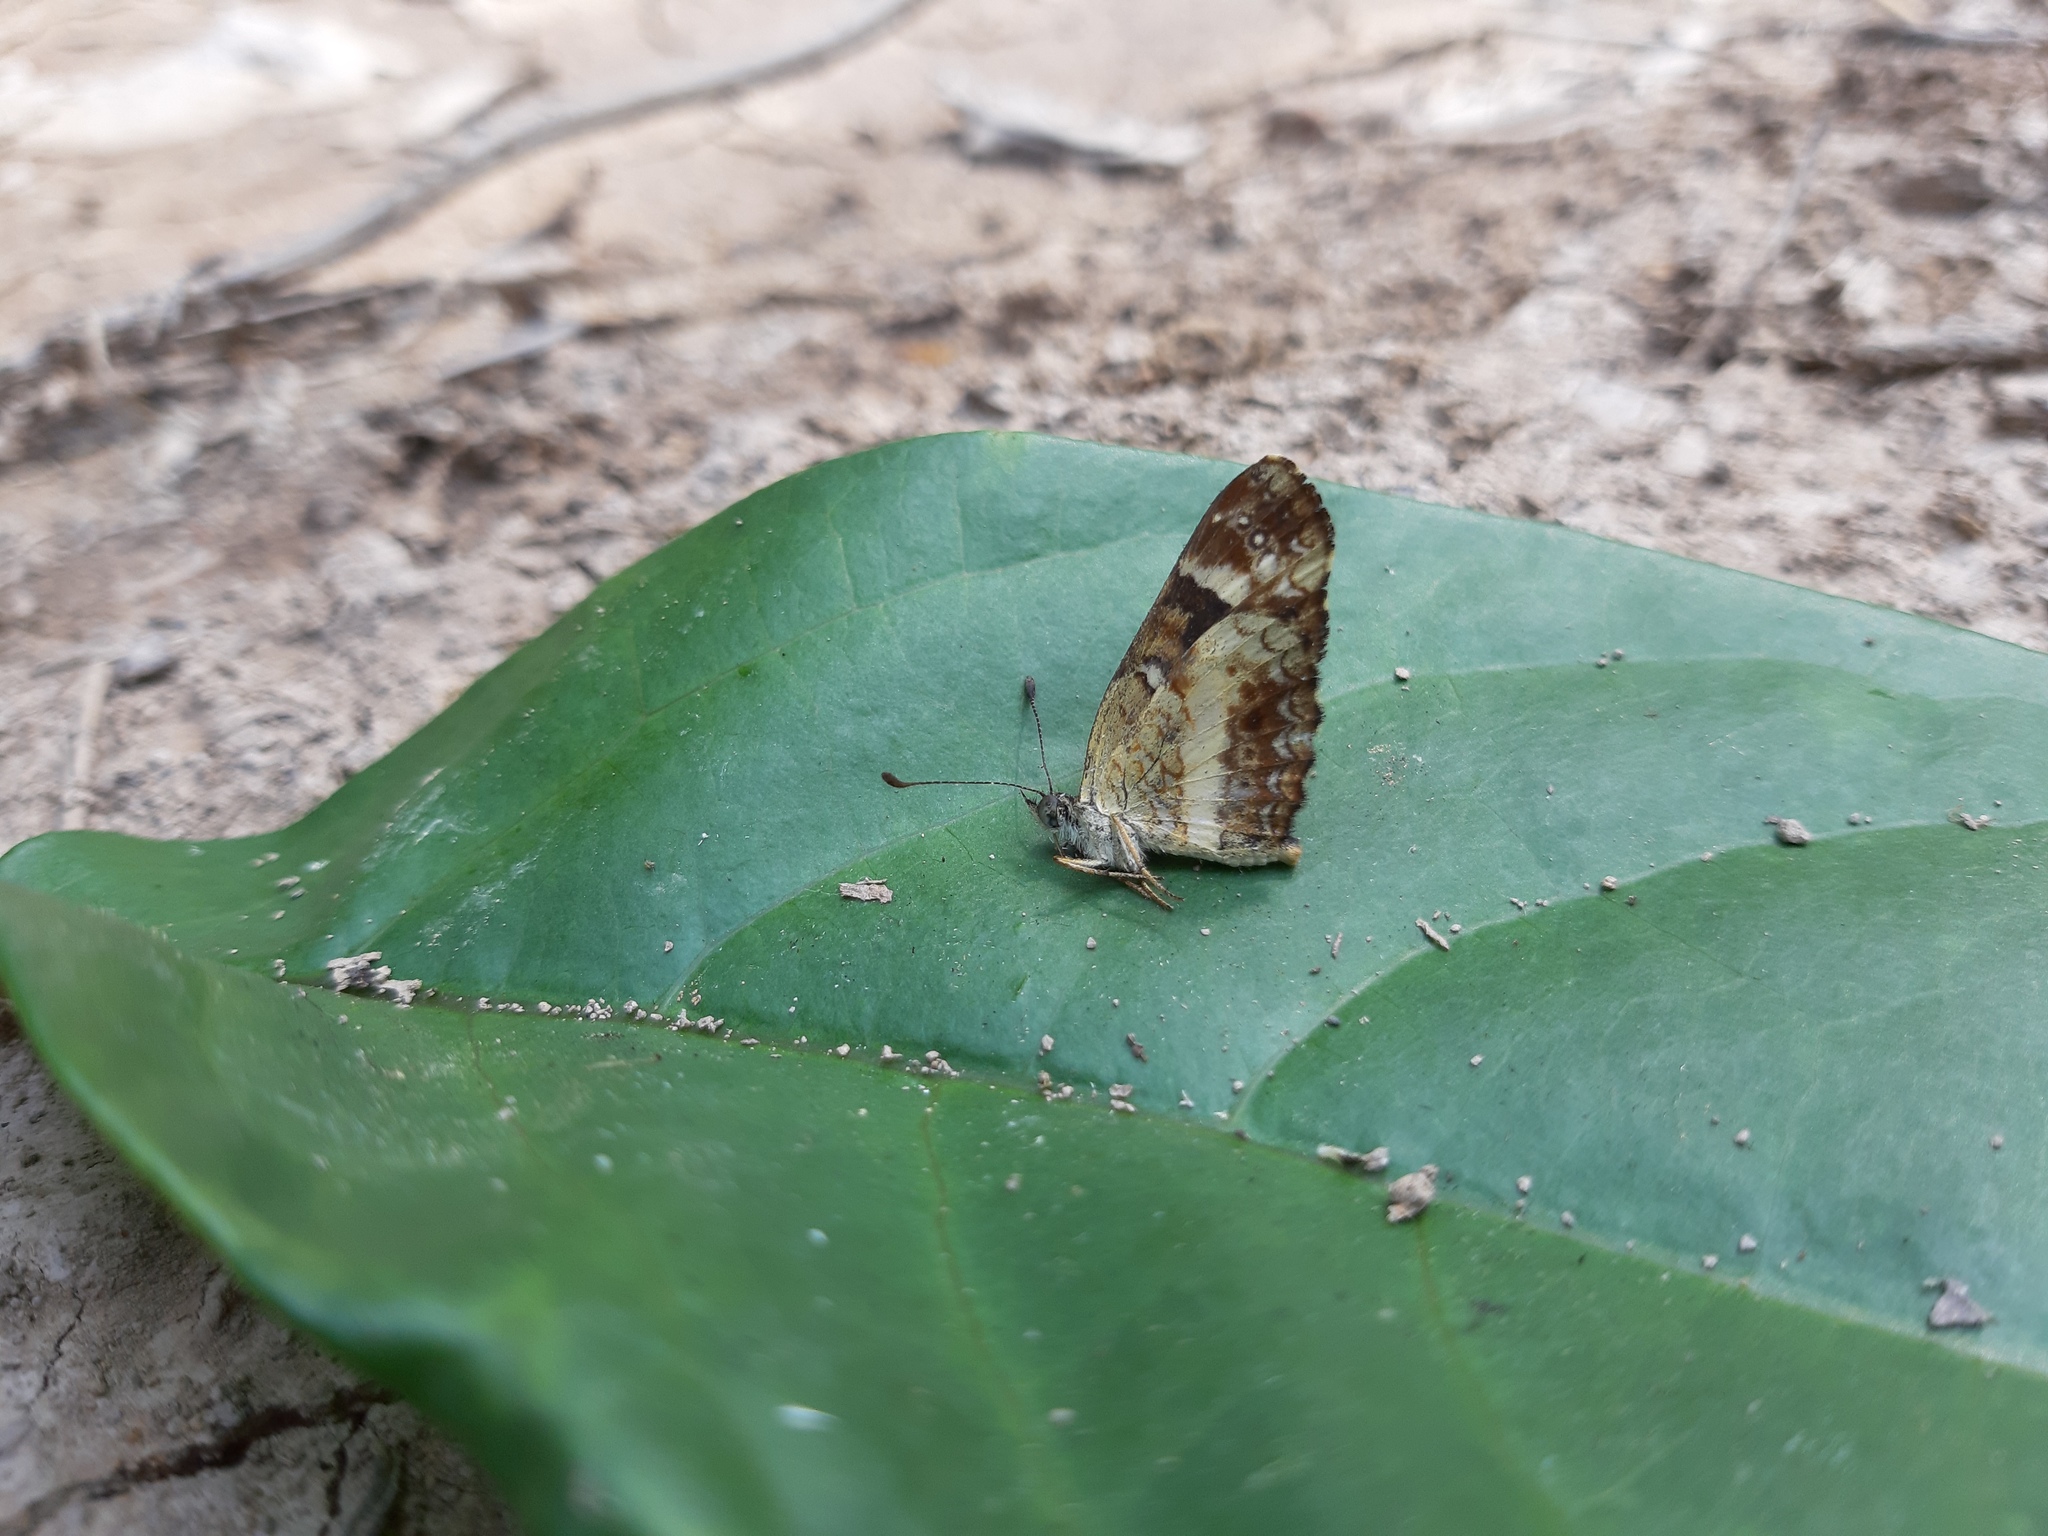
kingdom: Animalia
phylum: Arthropoda
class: Insecta
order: Lepidoptera
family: Nymphalidae
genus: Castilia
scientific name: Castilia angusta
